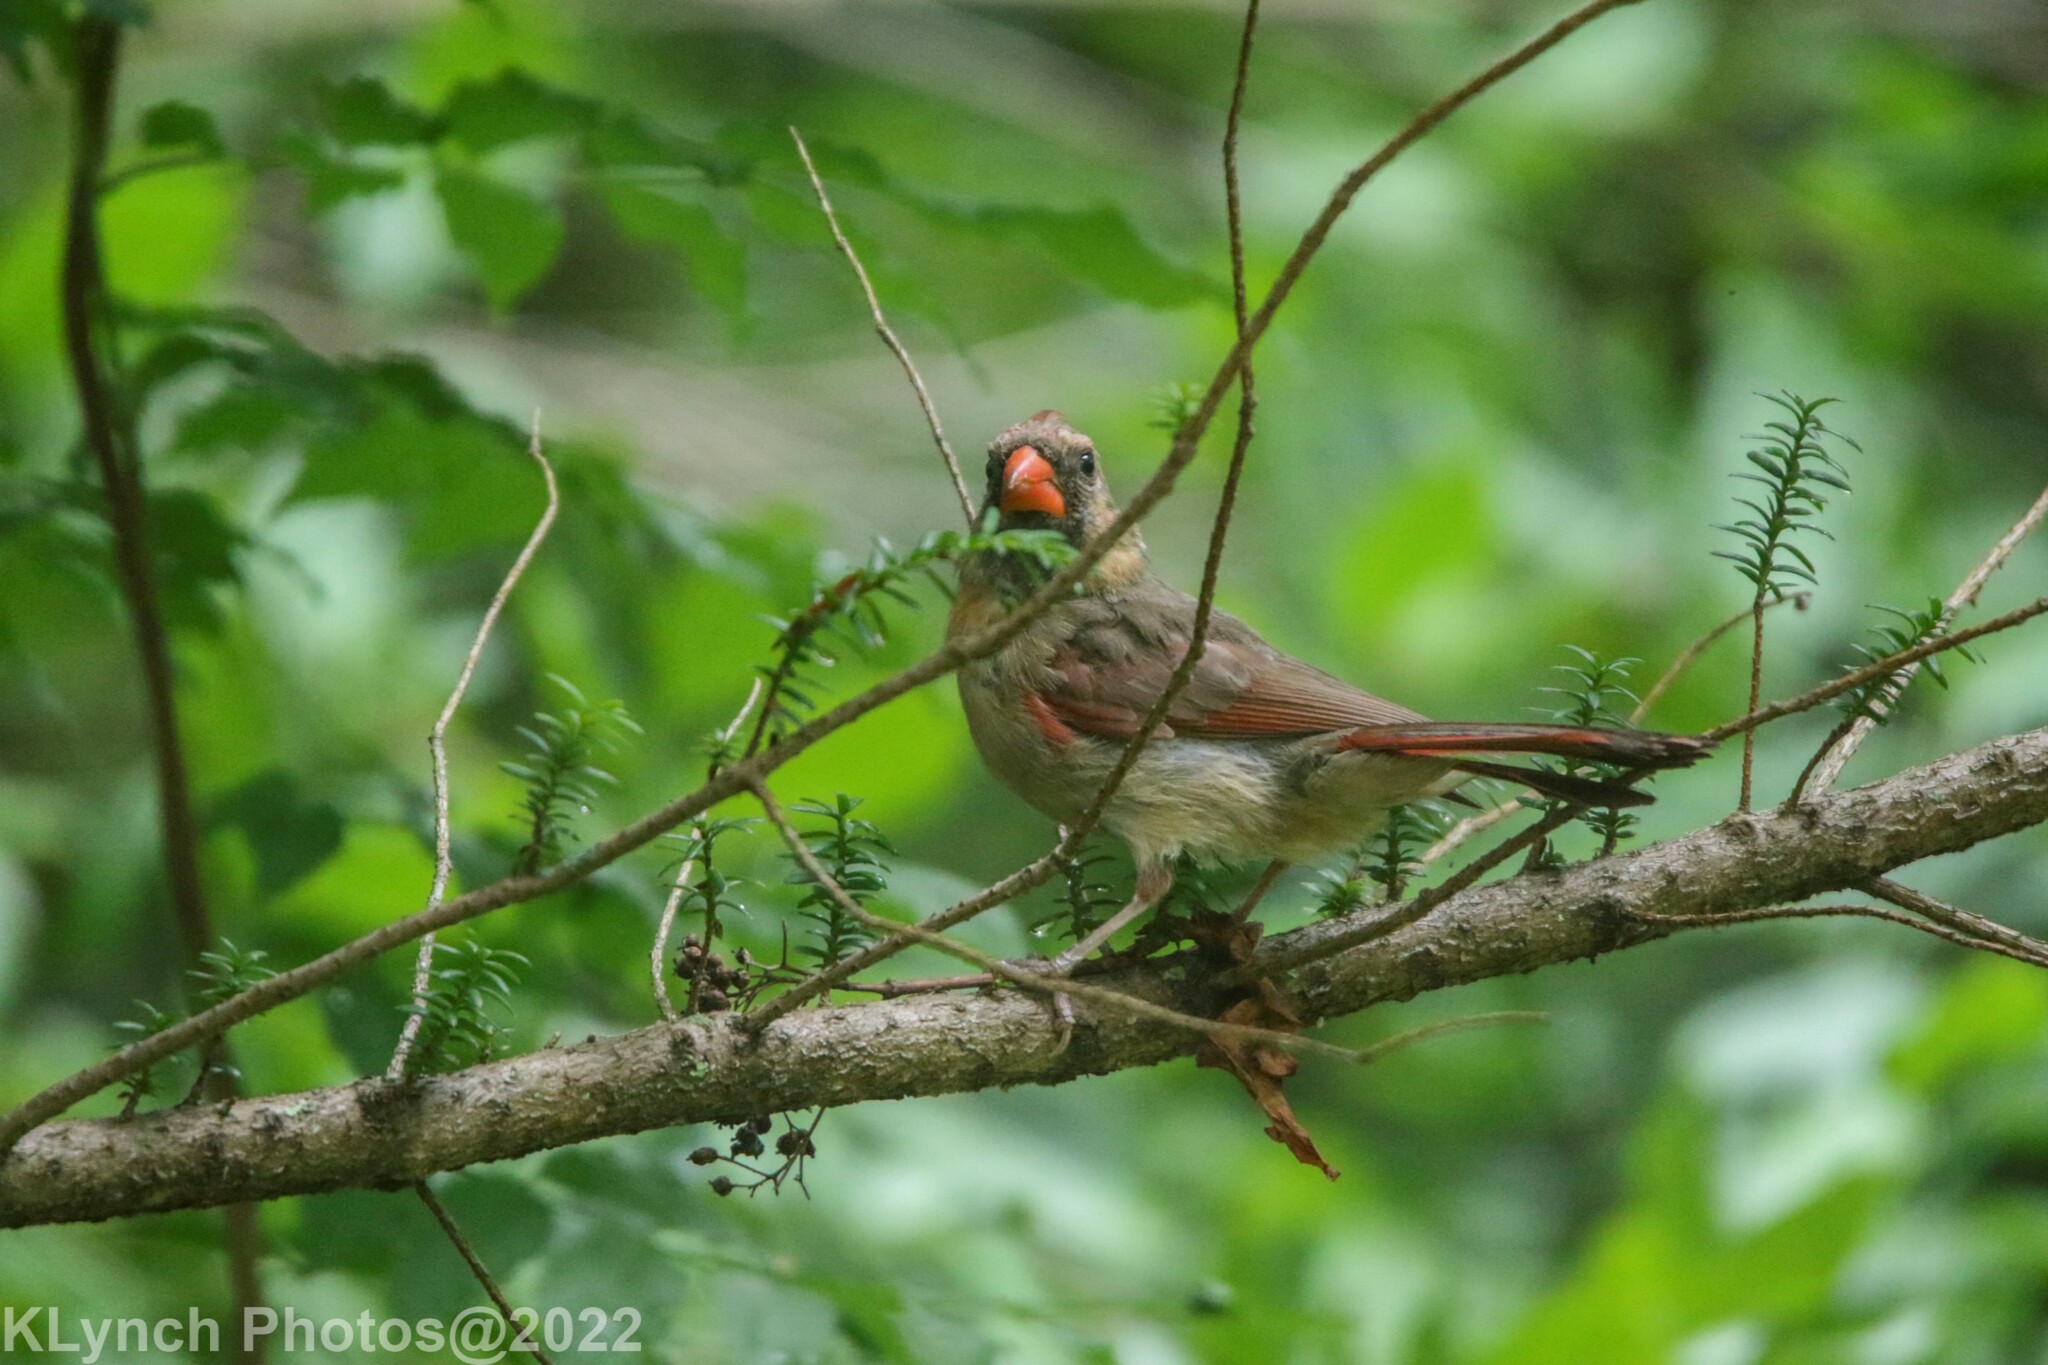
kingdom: Animalia
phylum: Chordata
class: Aves
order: Passeriformes
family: Cardinalidae
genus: Cardinalis
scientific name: Cardinalis cardinalis
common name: Northern cardinal
